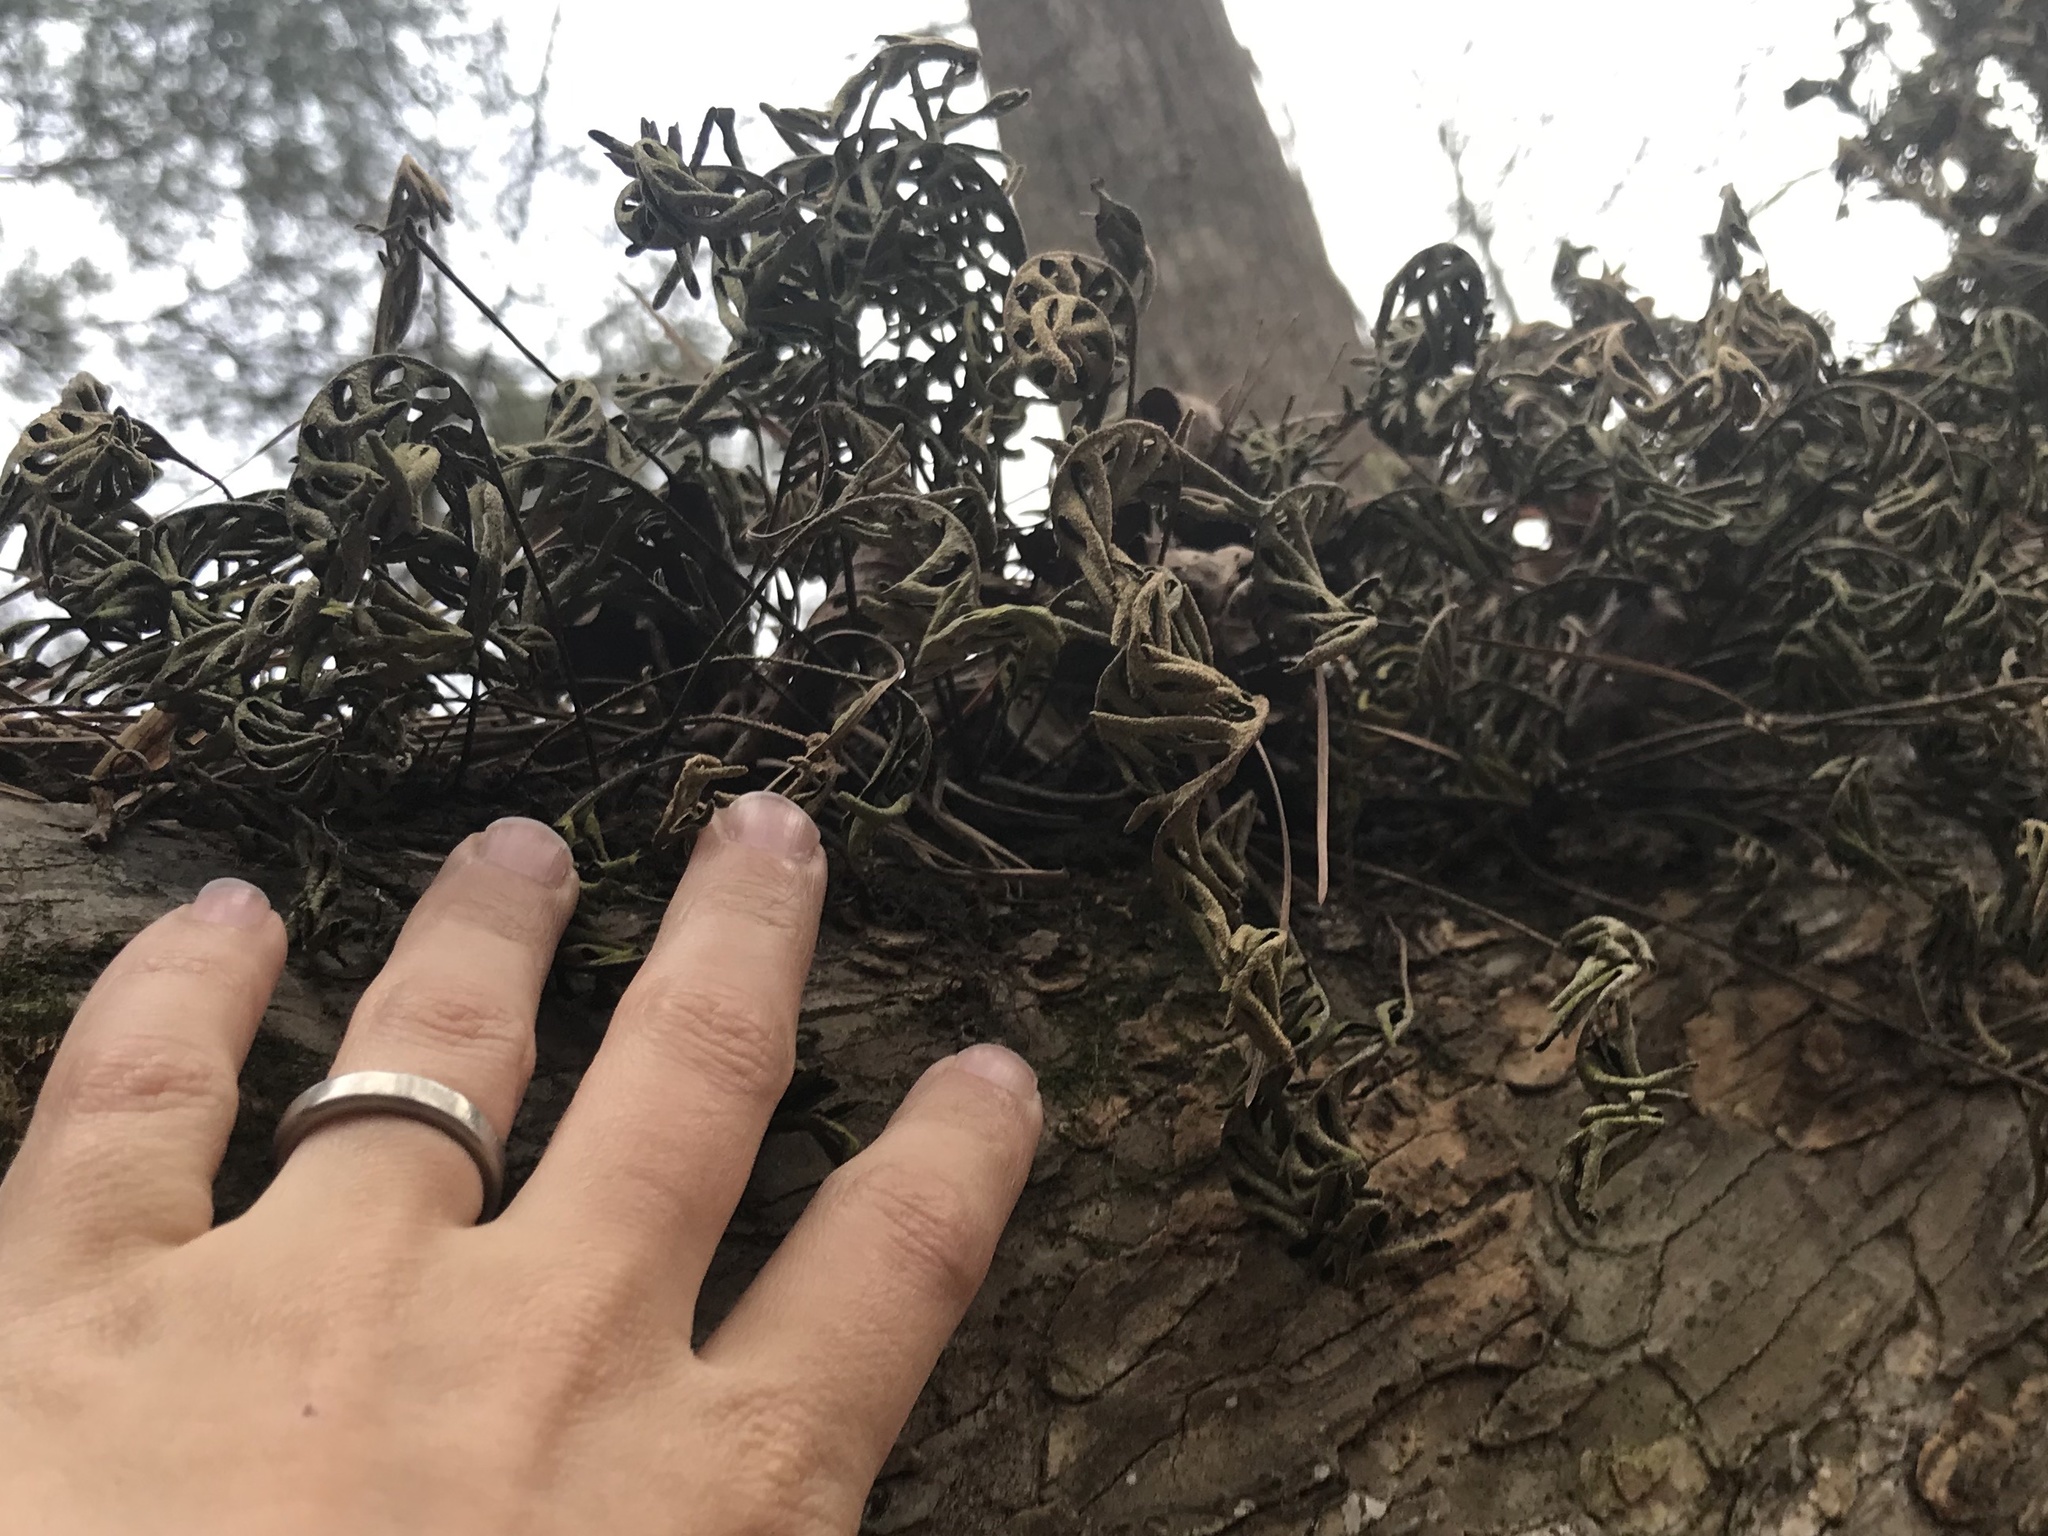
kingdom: Plantae
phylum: Tracheophyta
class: Polypodiopsida
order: Polypodiales
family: Polypodiaceae
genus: Pleopeltis
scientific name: Pleopeltis michauxiana
